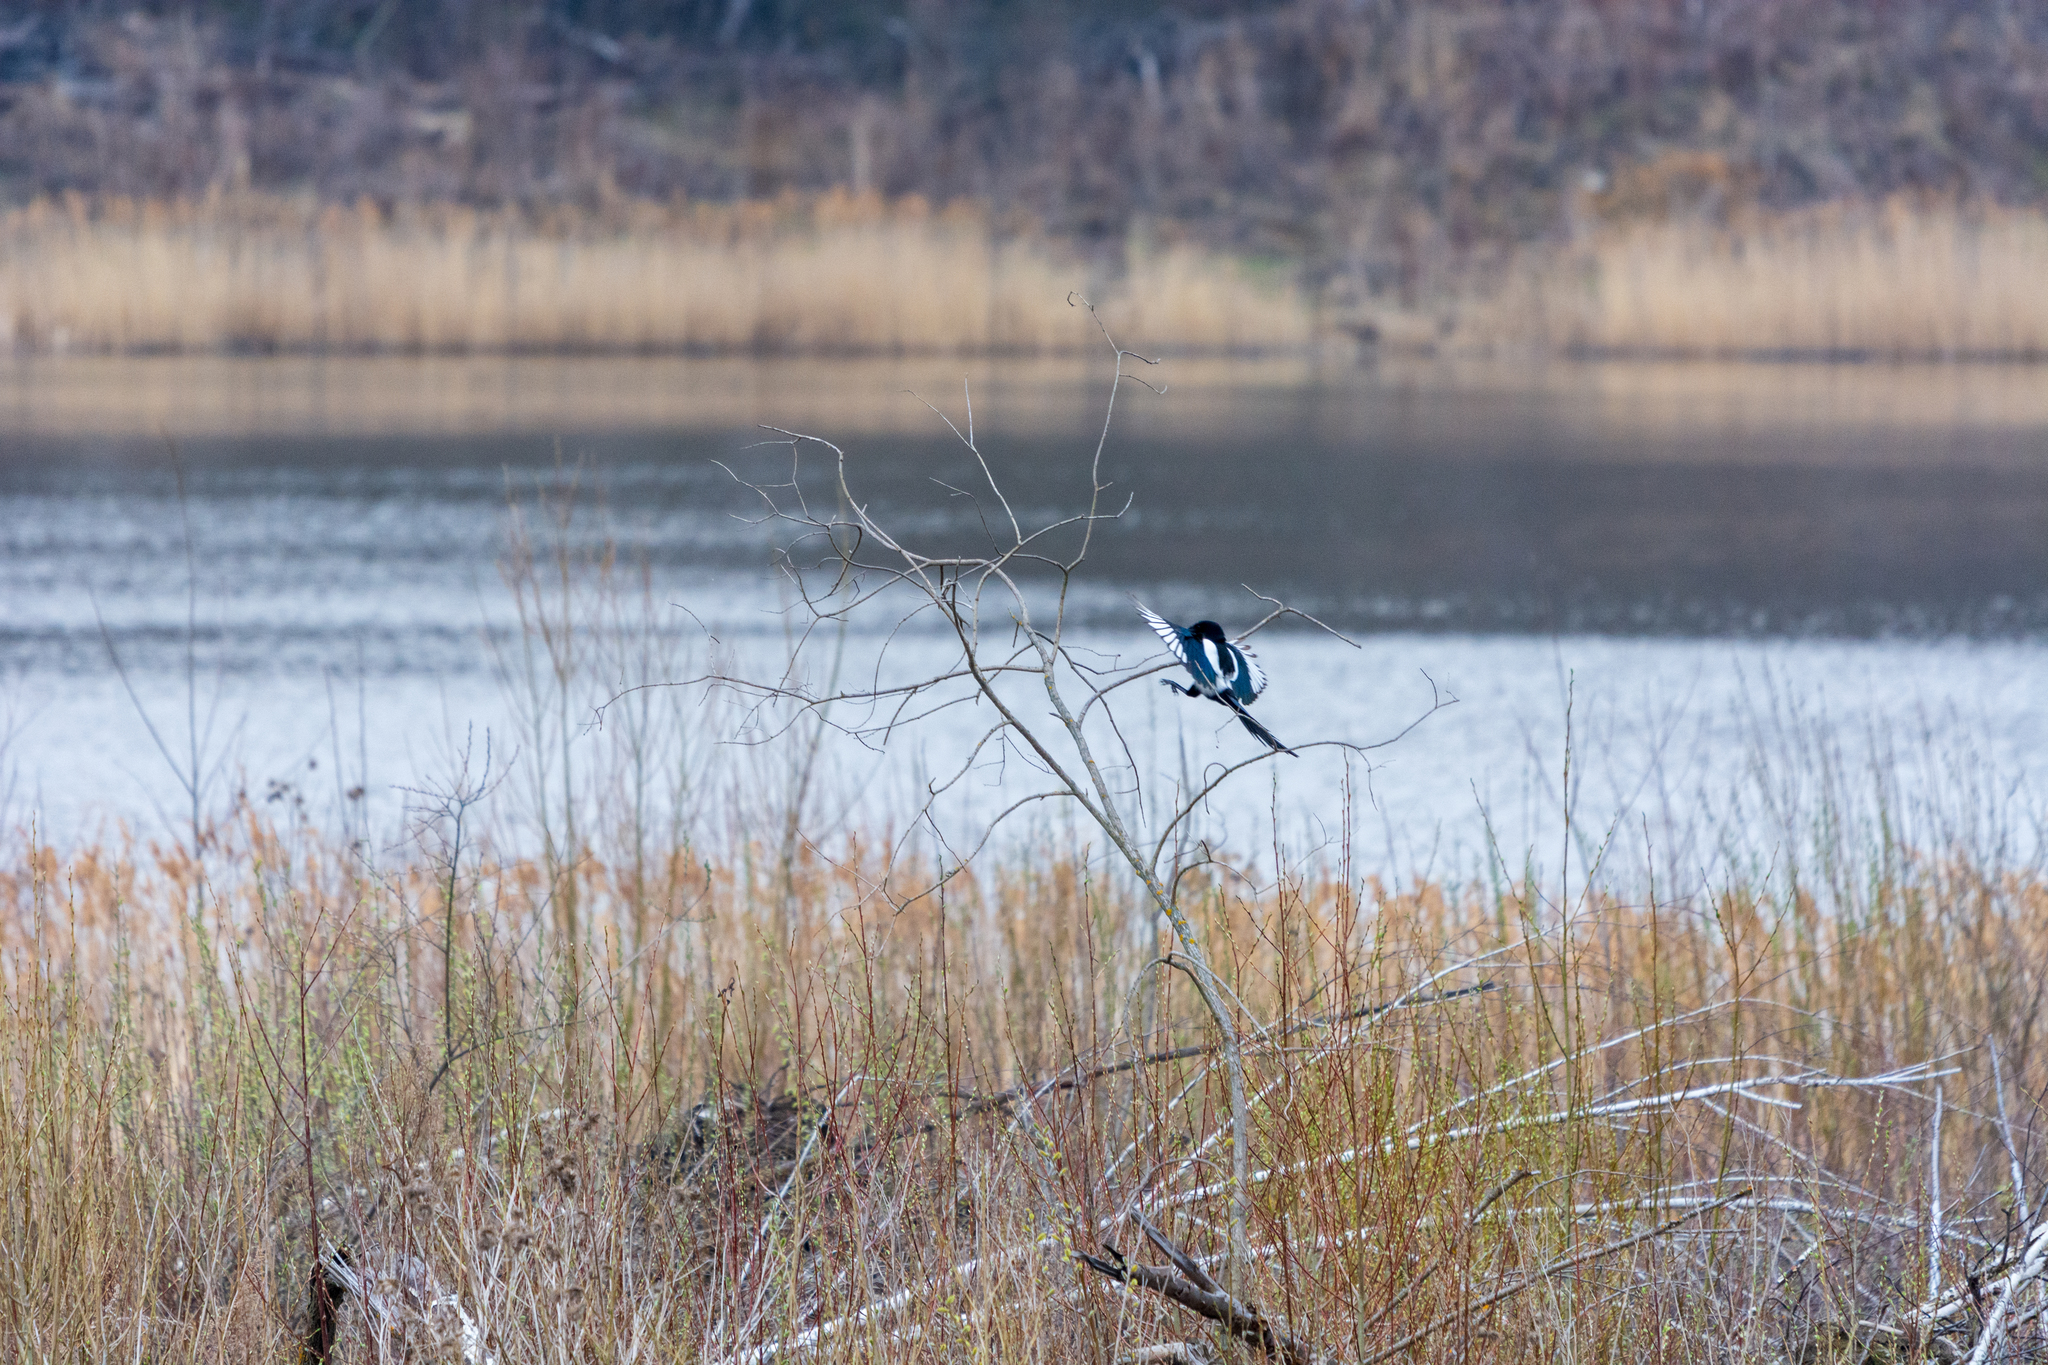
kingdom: Animalia
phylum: Chordata
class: Aves
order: Passeriformes
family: Corvidae
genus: Pica
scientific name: Pica pica
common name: Eurasian magpie
